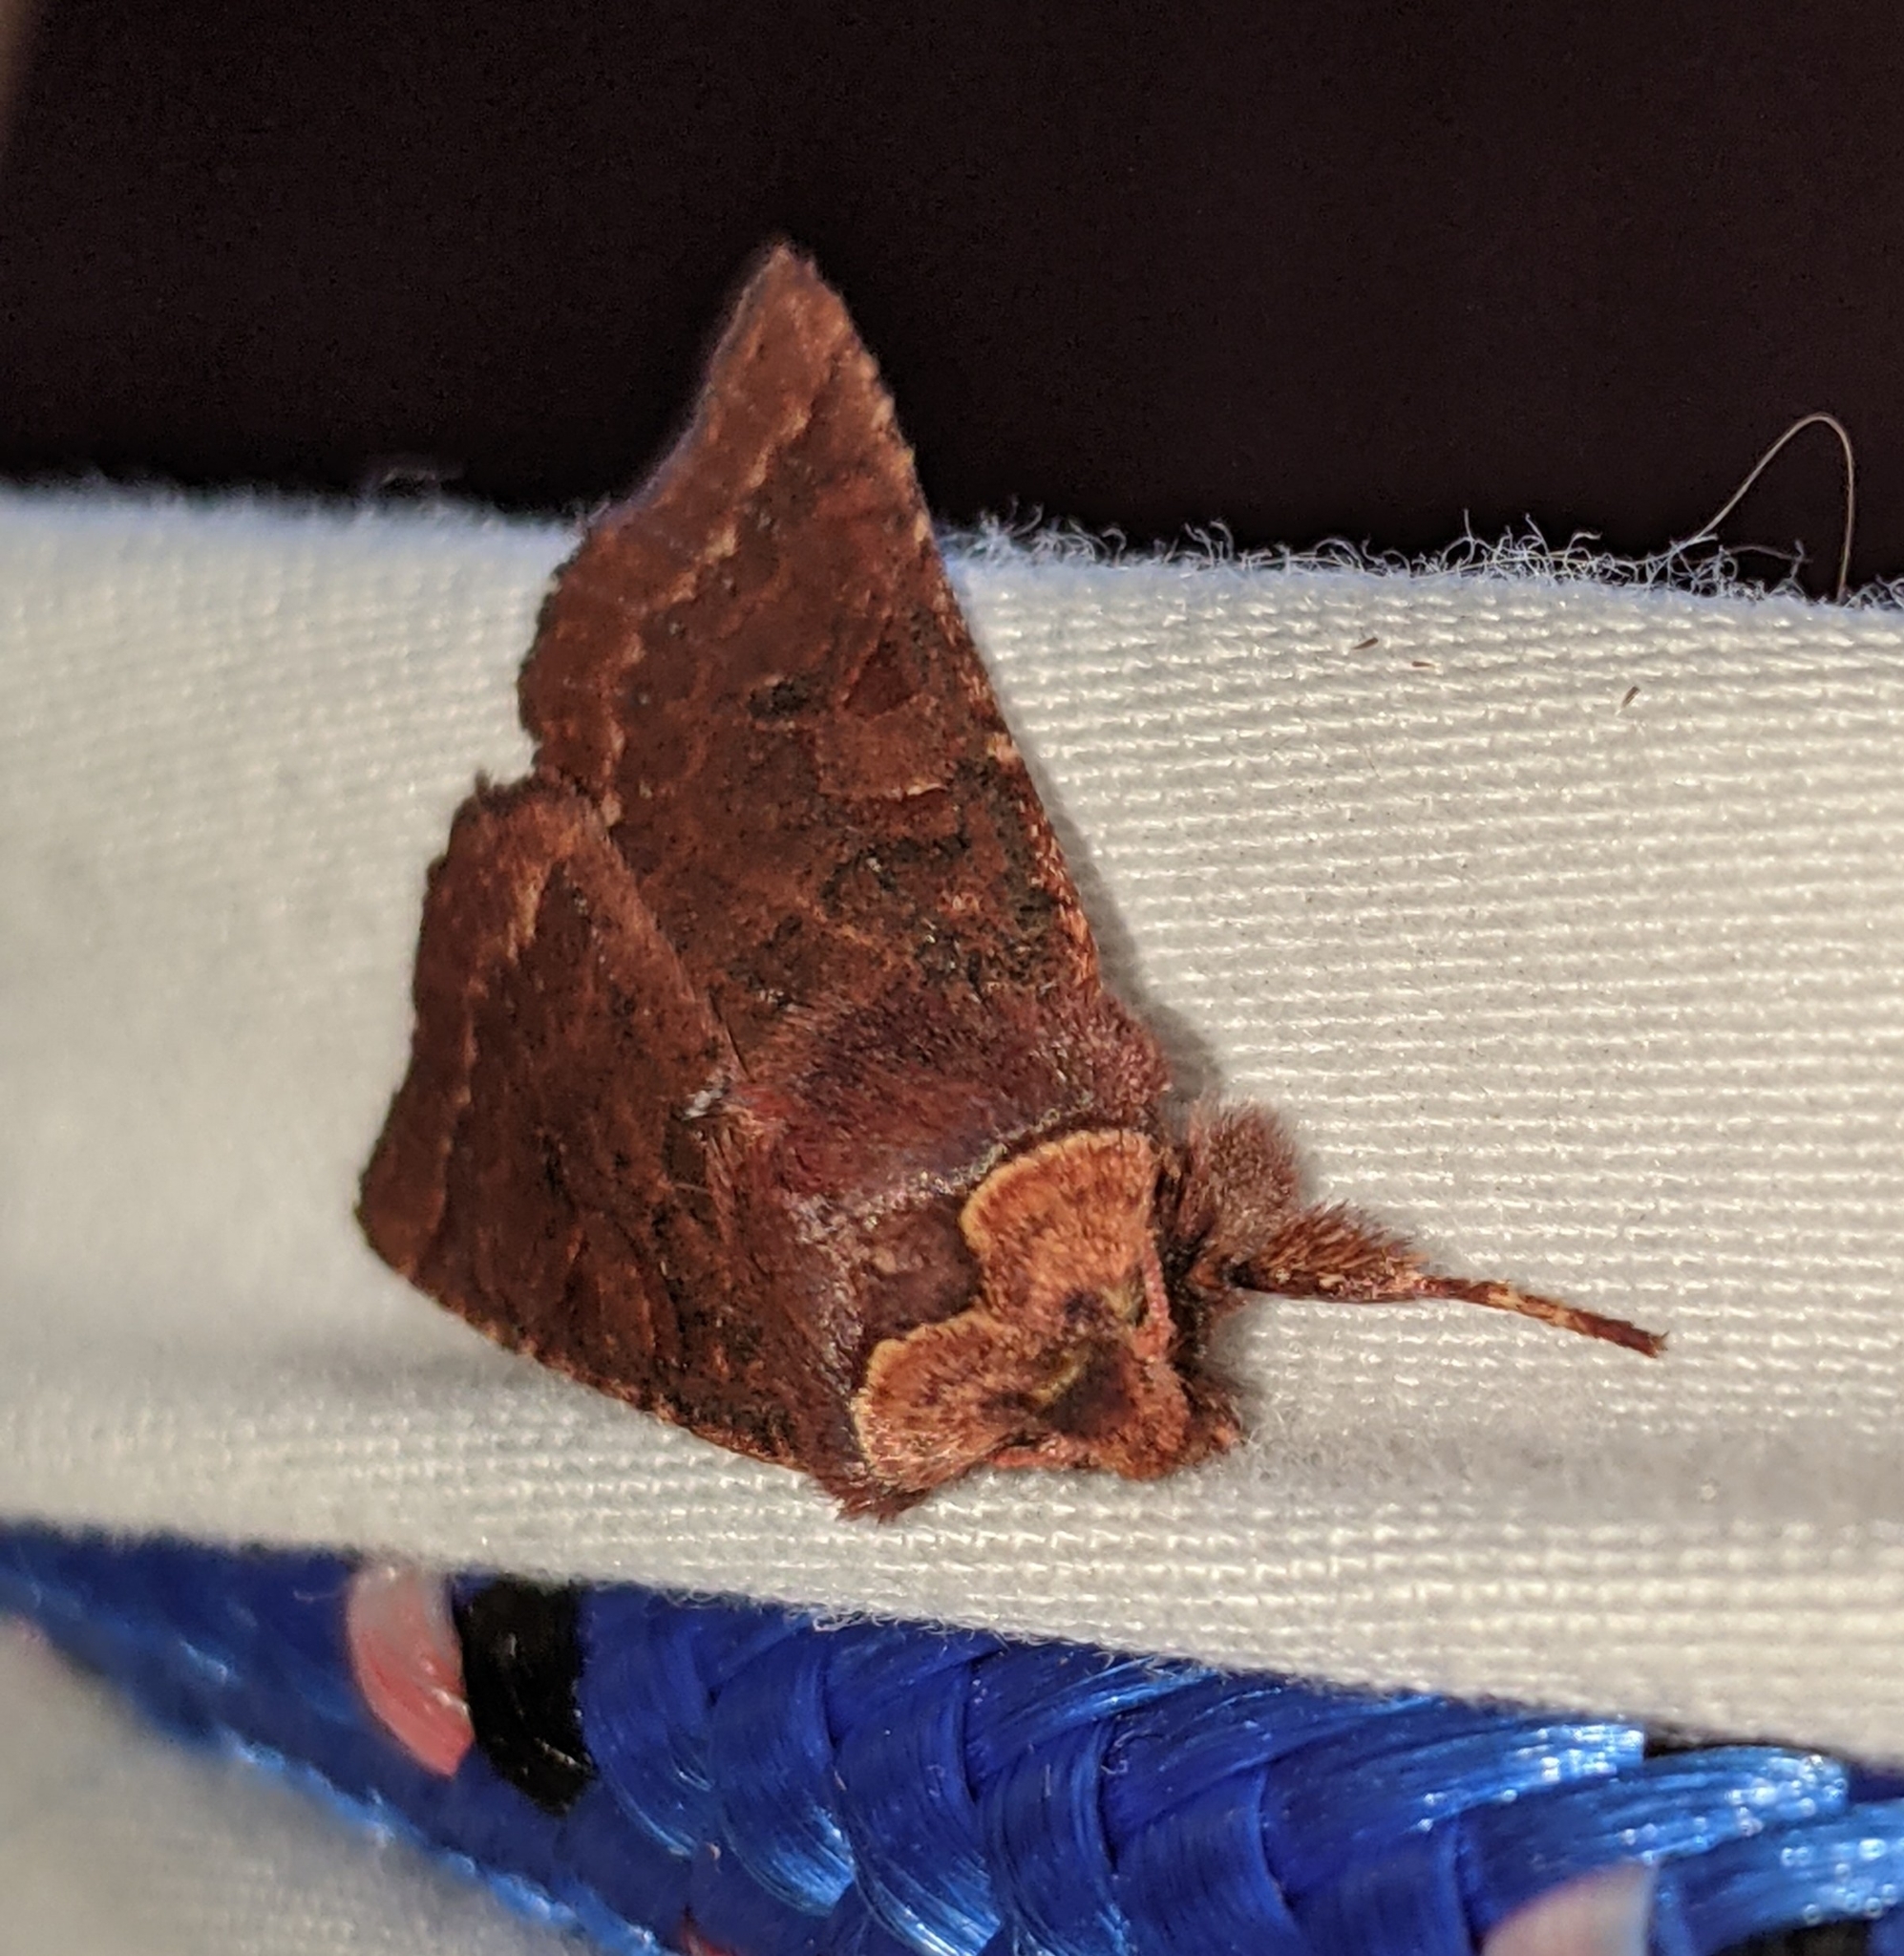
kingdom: Animalia
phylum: Arthropoda
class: Insecta
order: Lepidoptera
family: Noctuidae
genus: Orthosia
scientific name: Orthosia praeses
